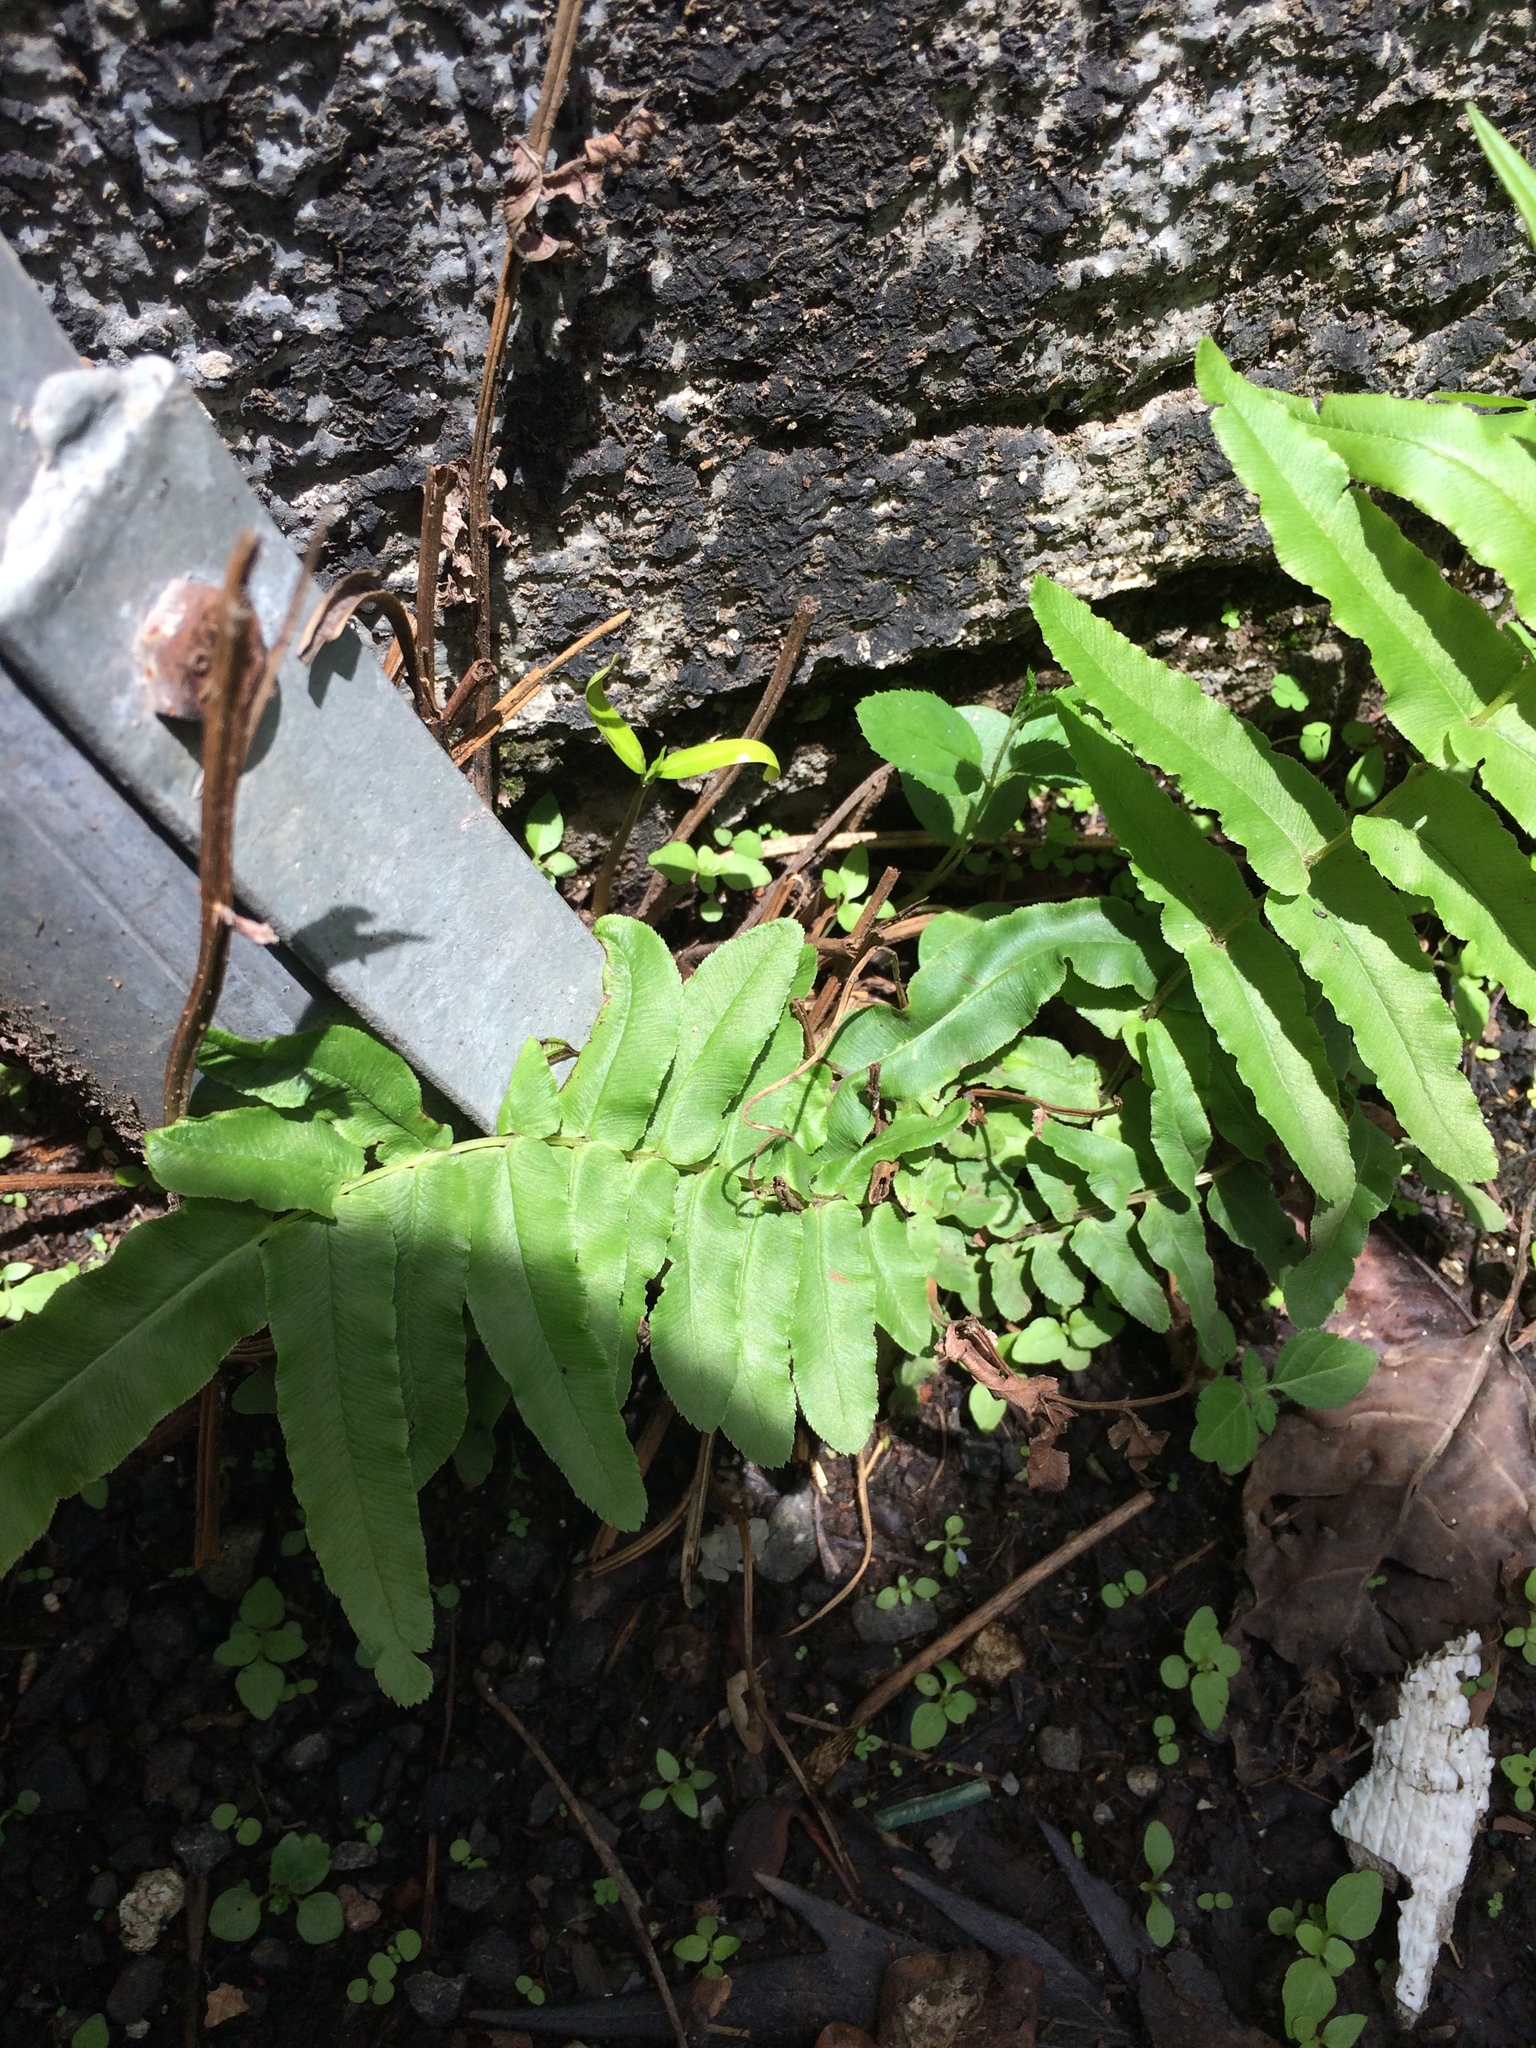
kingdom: Plantae
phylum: Tracheophyta
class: Polypodiopsida
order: Polypodiales
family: Pteridaceae
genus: Pteris
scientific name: Pteris vittata
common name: Ladder brake
